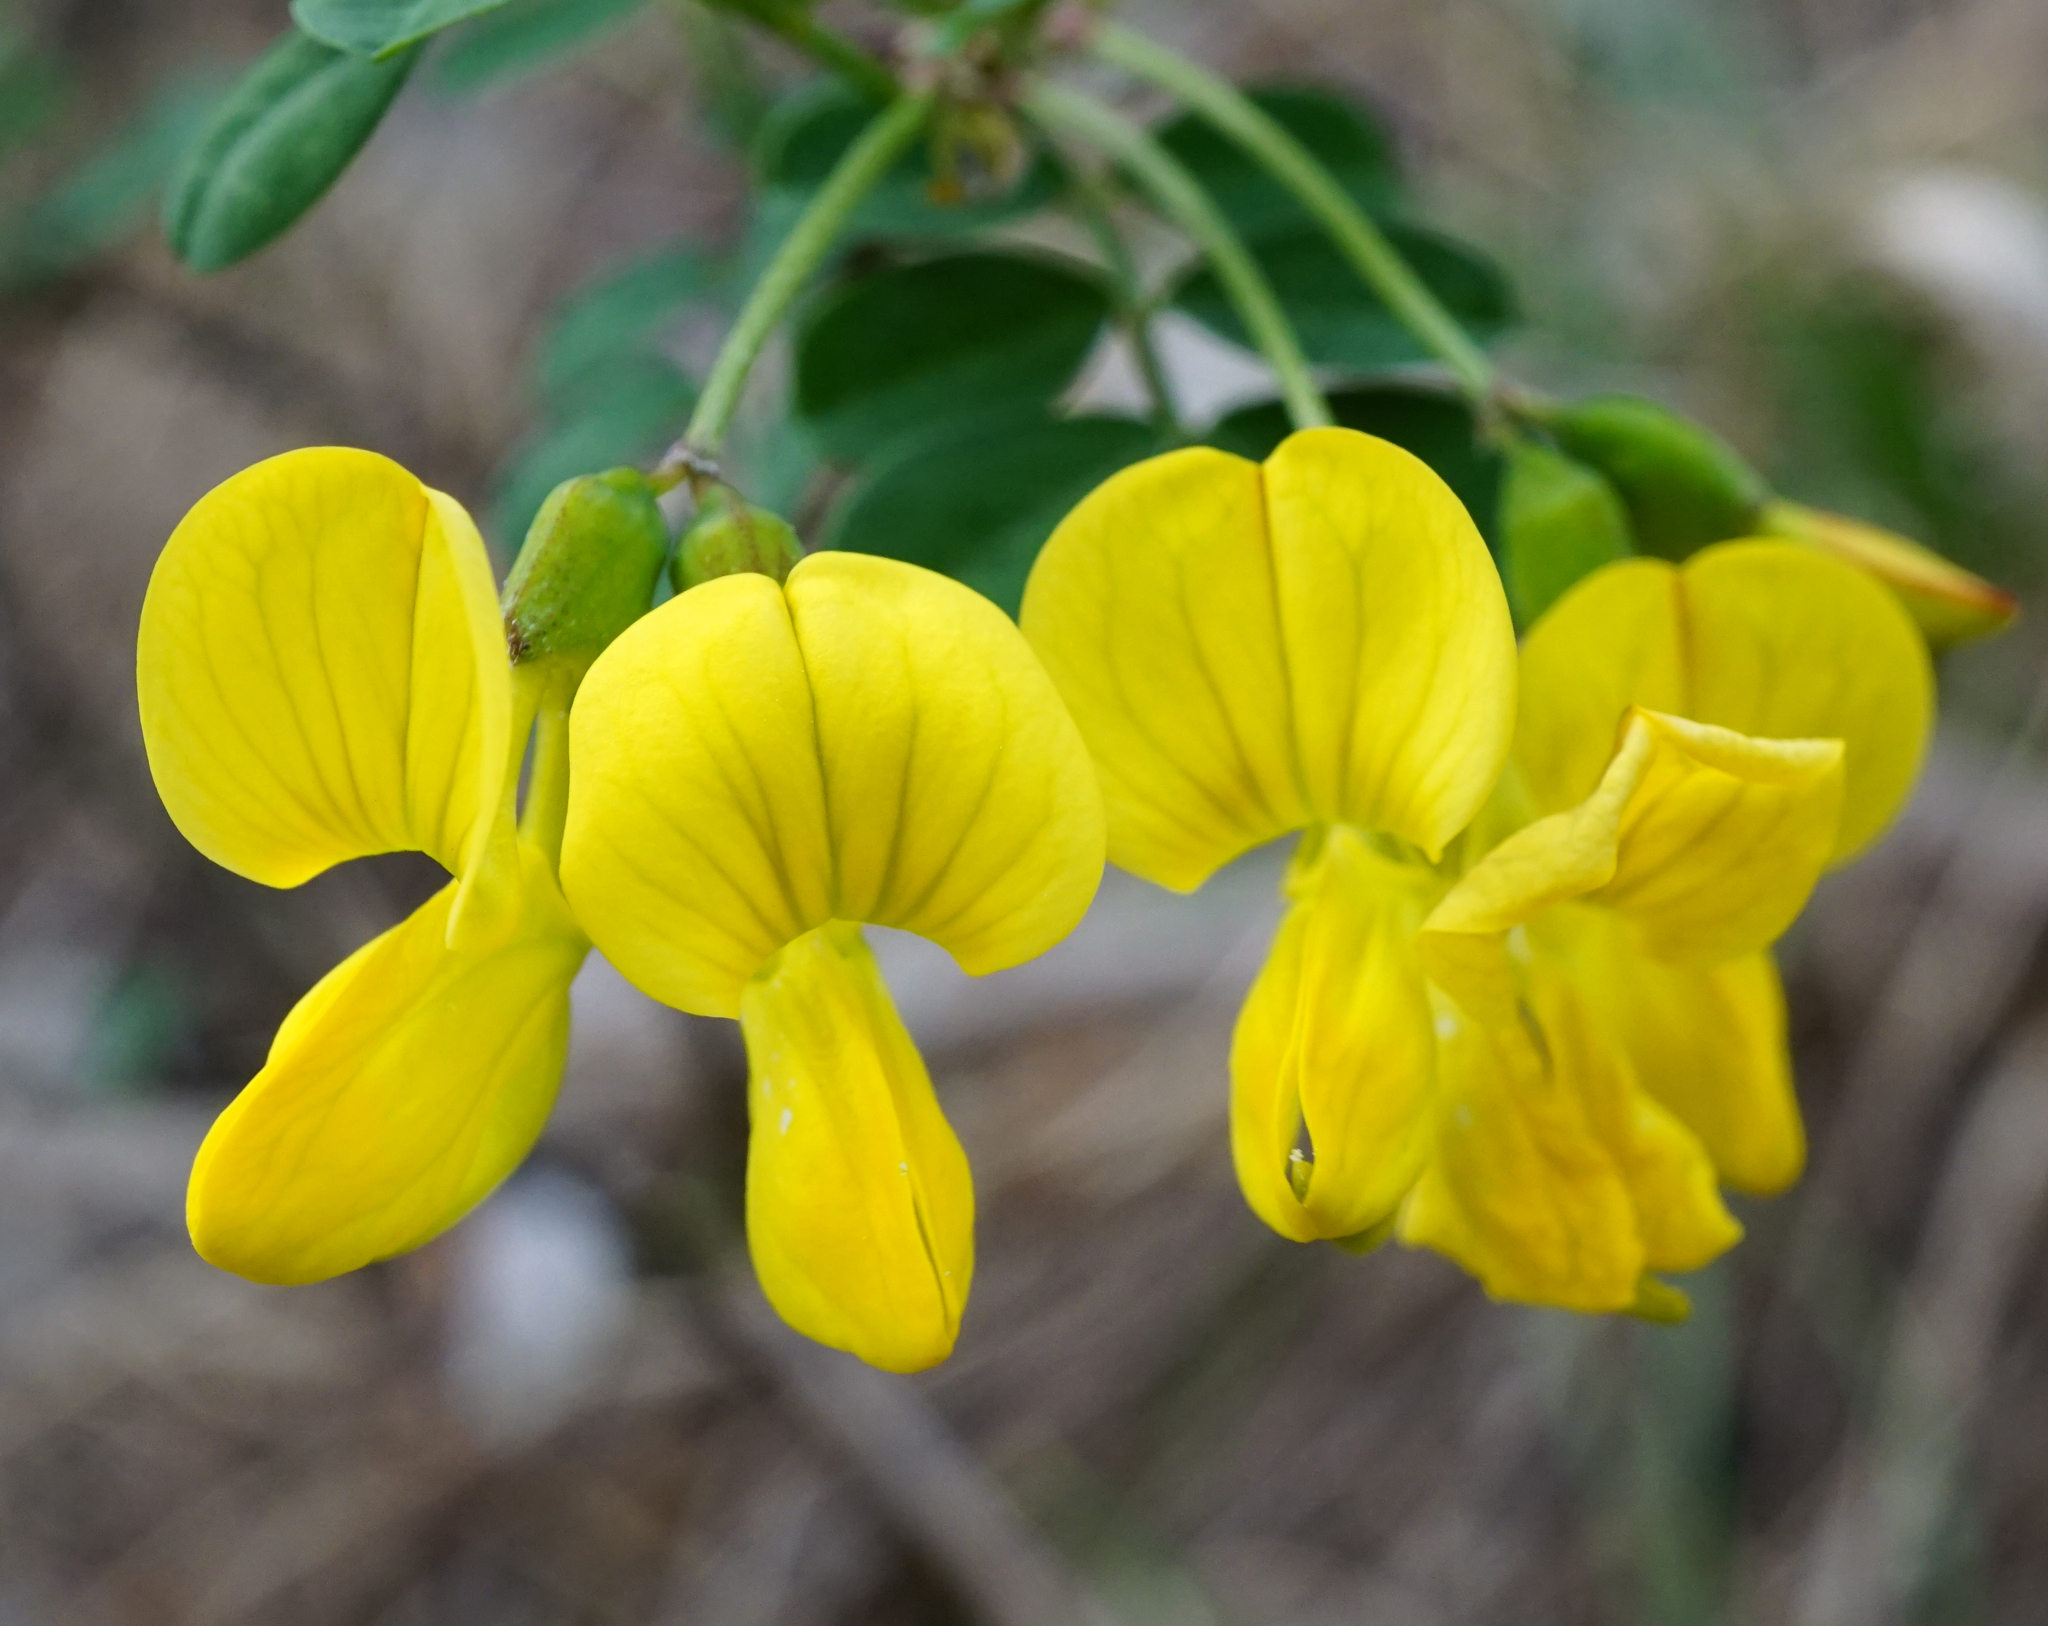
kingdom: Plantae
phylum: Tracheophyta
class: Magnoliopsida
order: Fabales
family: Fabaceae
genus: Hippocrepis
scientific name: Hippocrepis emerus
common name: Scorpion senna
